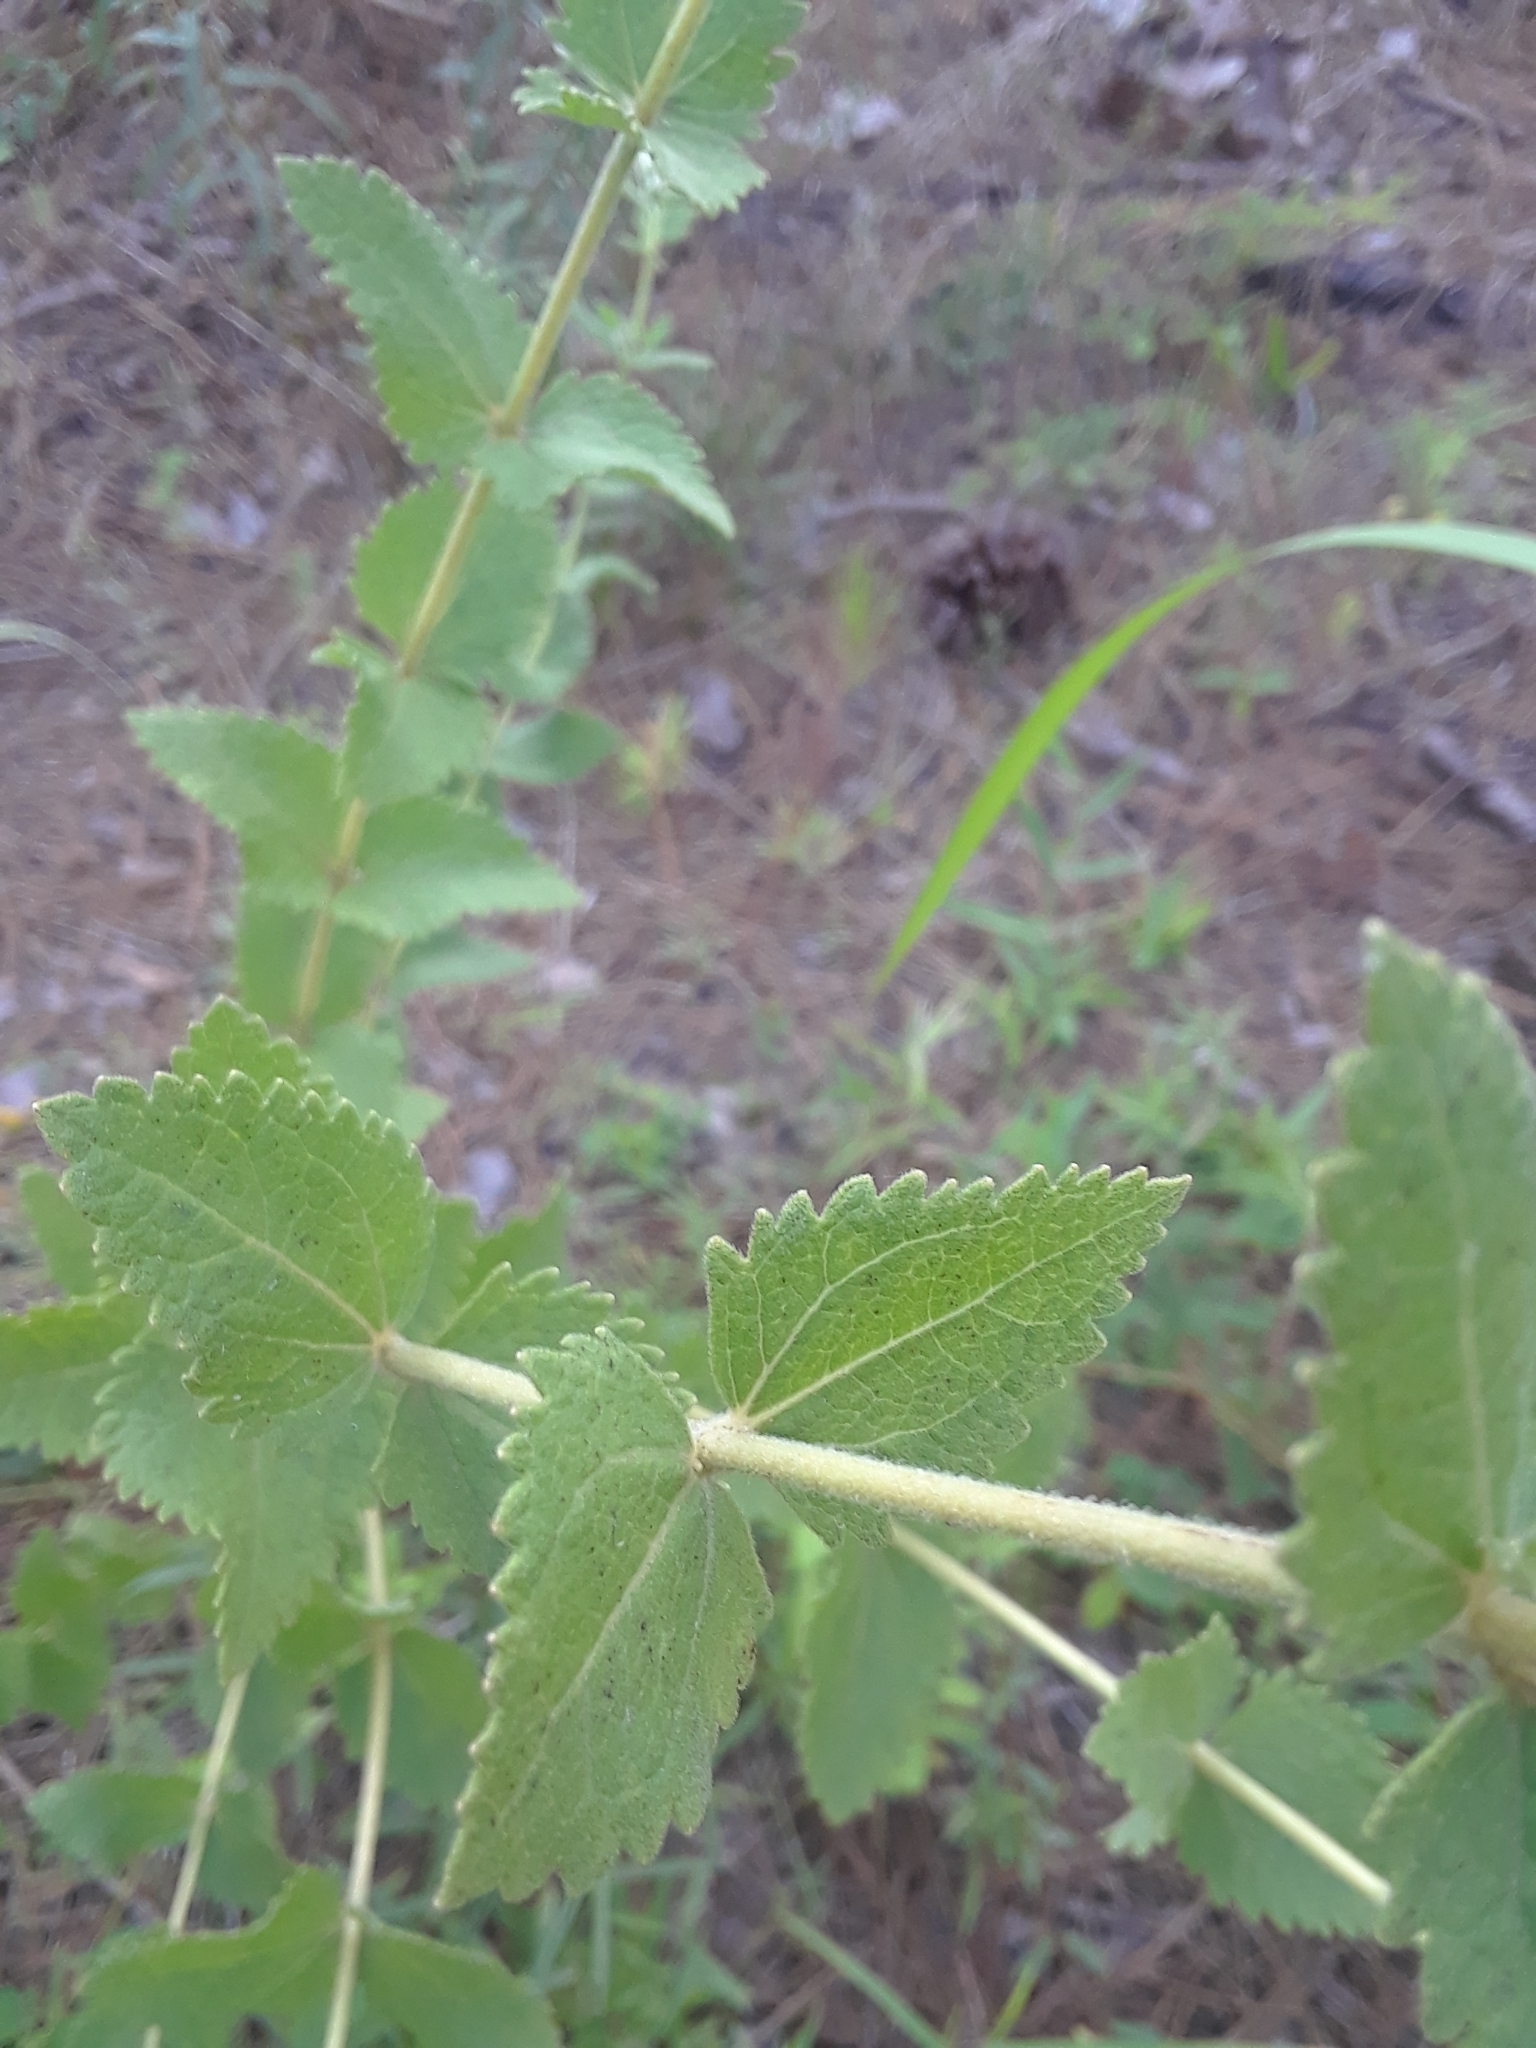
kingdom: Plantae
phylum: Tracheophyta
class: Magnoliopsida
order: Asterales
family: Asteraceae
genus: Eupatorium
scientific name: Eupatorium rotundifolium
